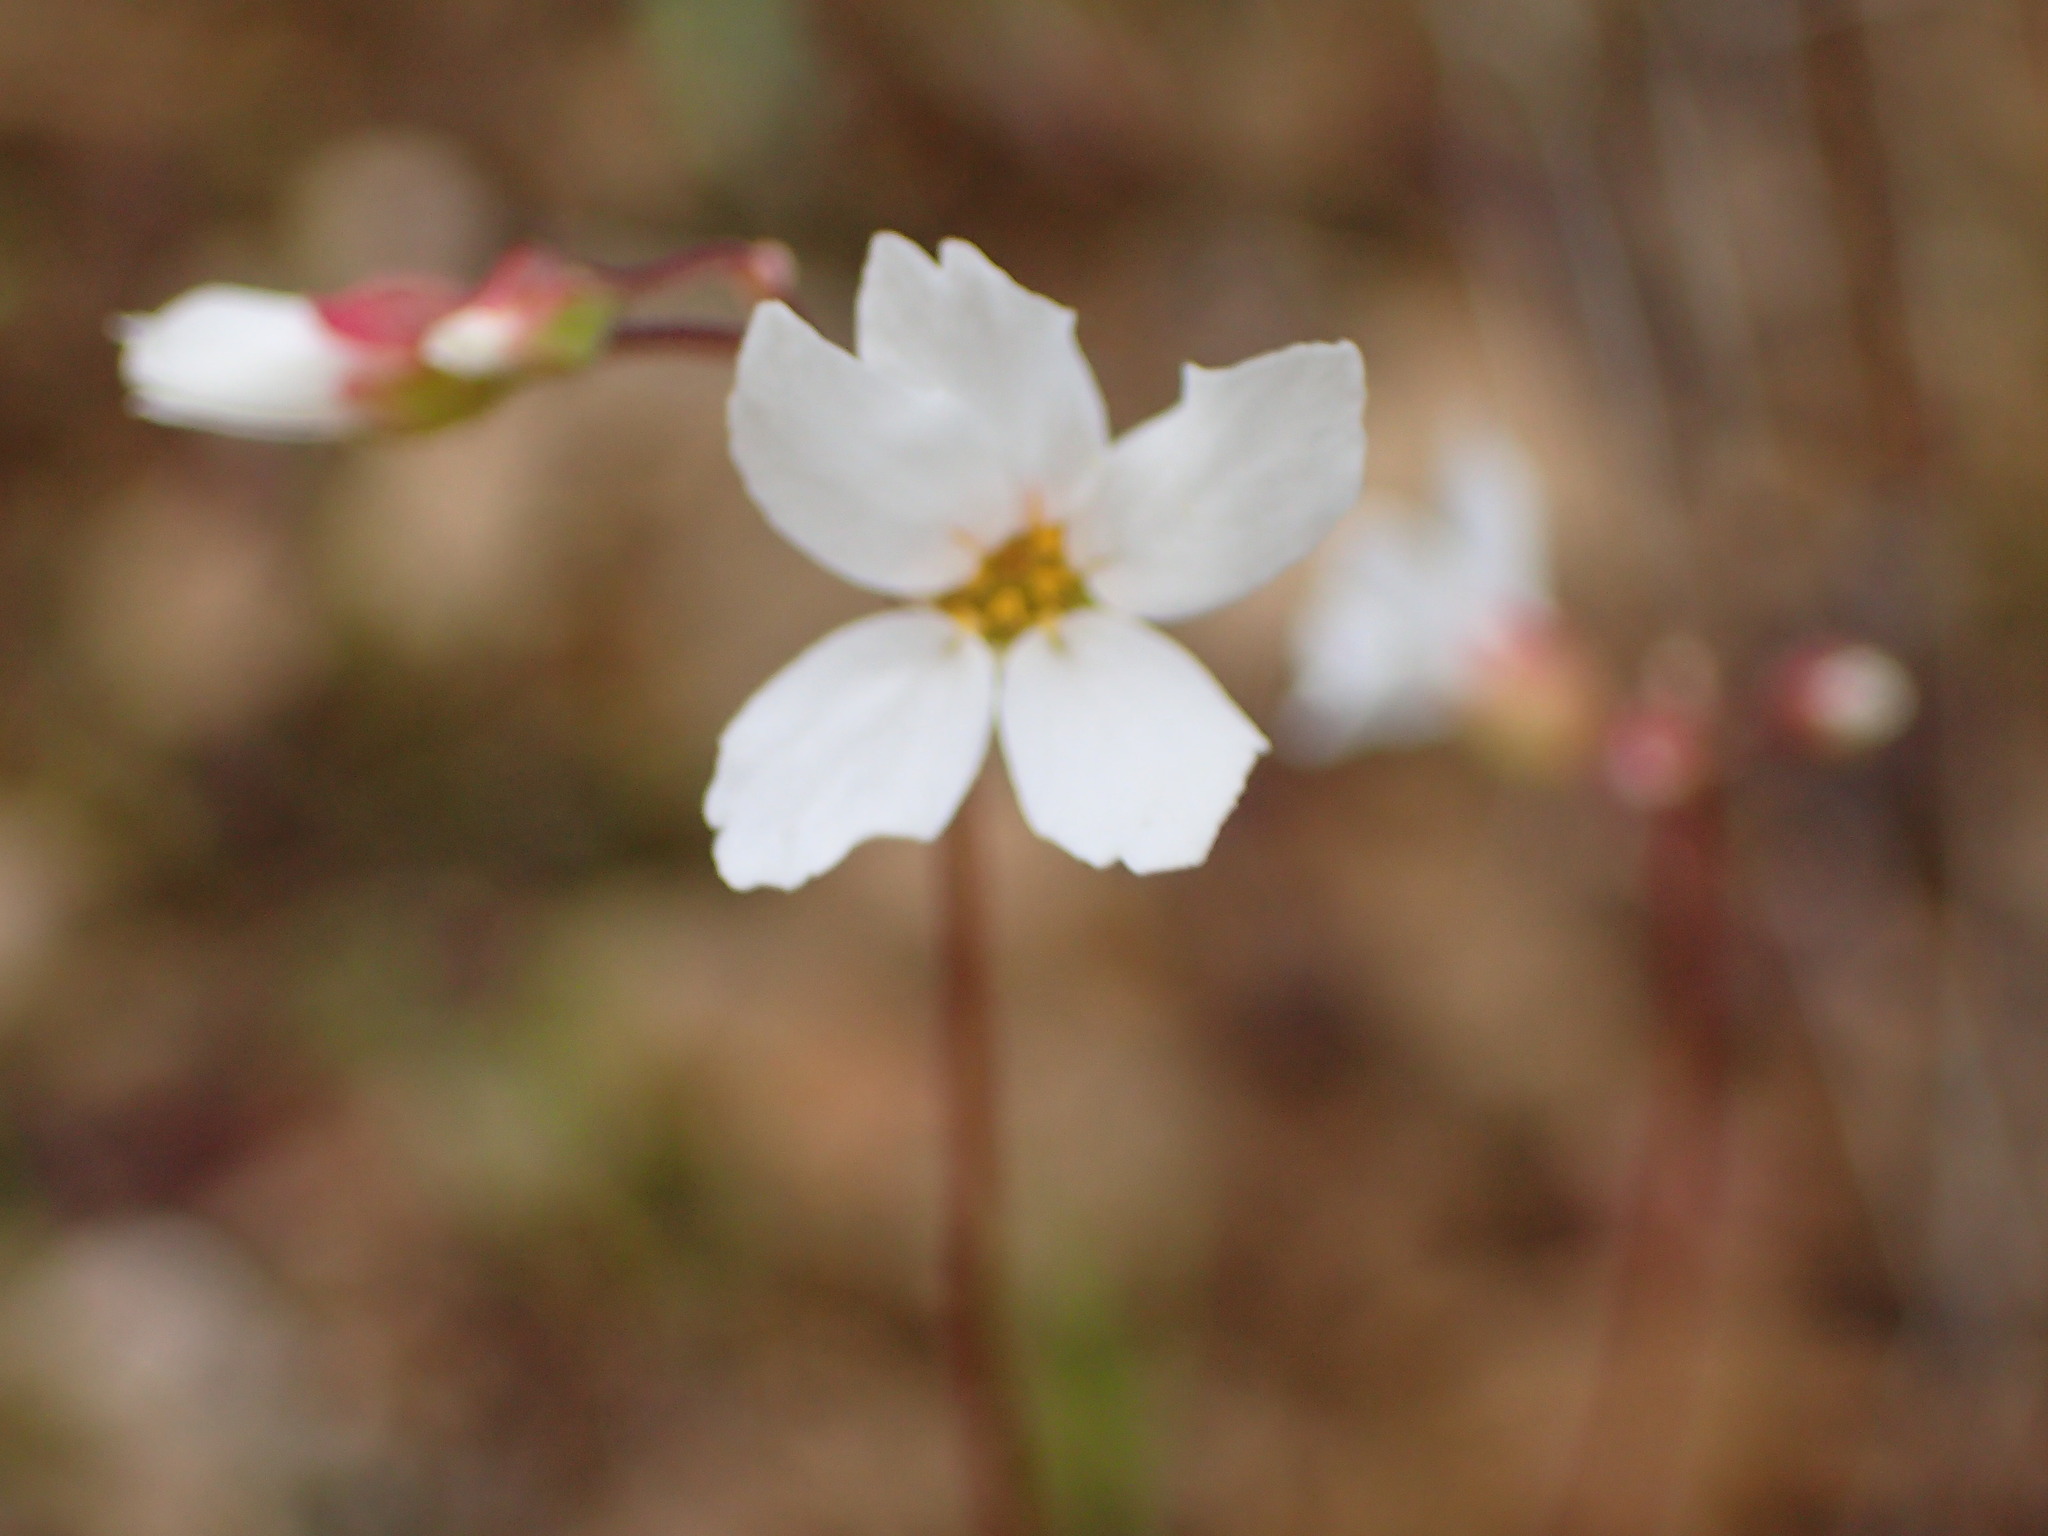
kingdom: Plantae
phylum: Tracheophyta
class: Magnoliopsida
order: Saxifragales
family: Saxifragaceae
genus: Lithophragma
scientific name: Lithophragma cymbalaria
